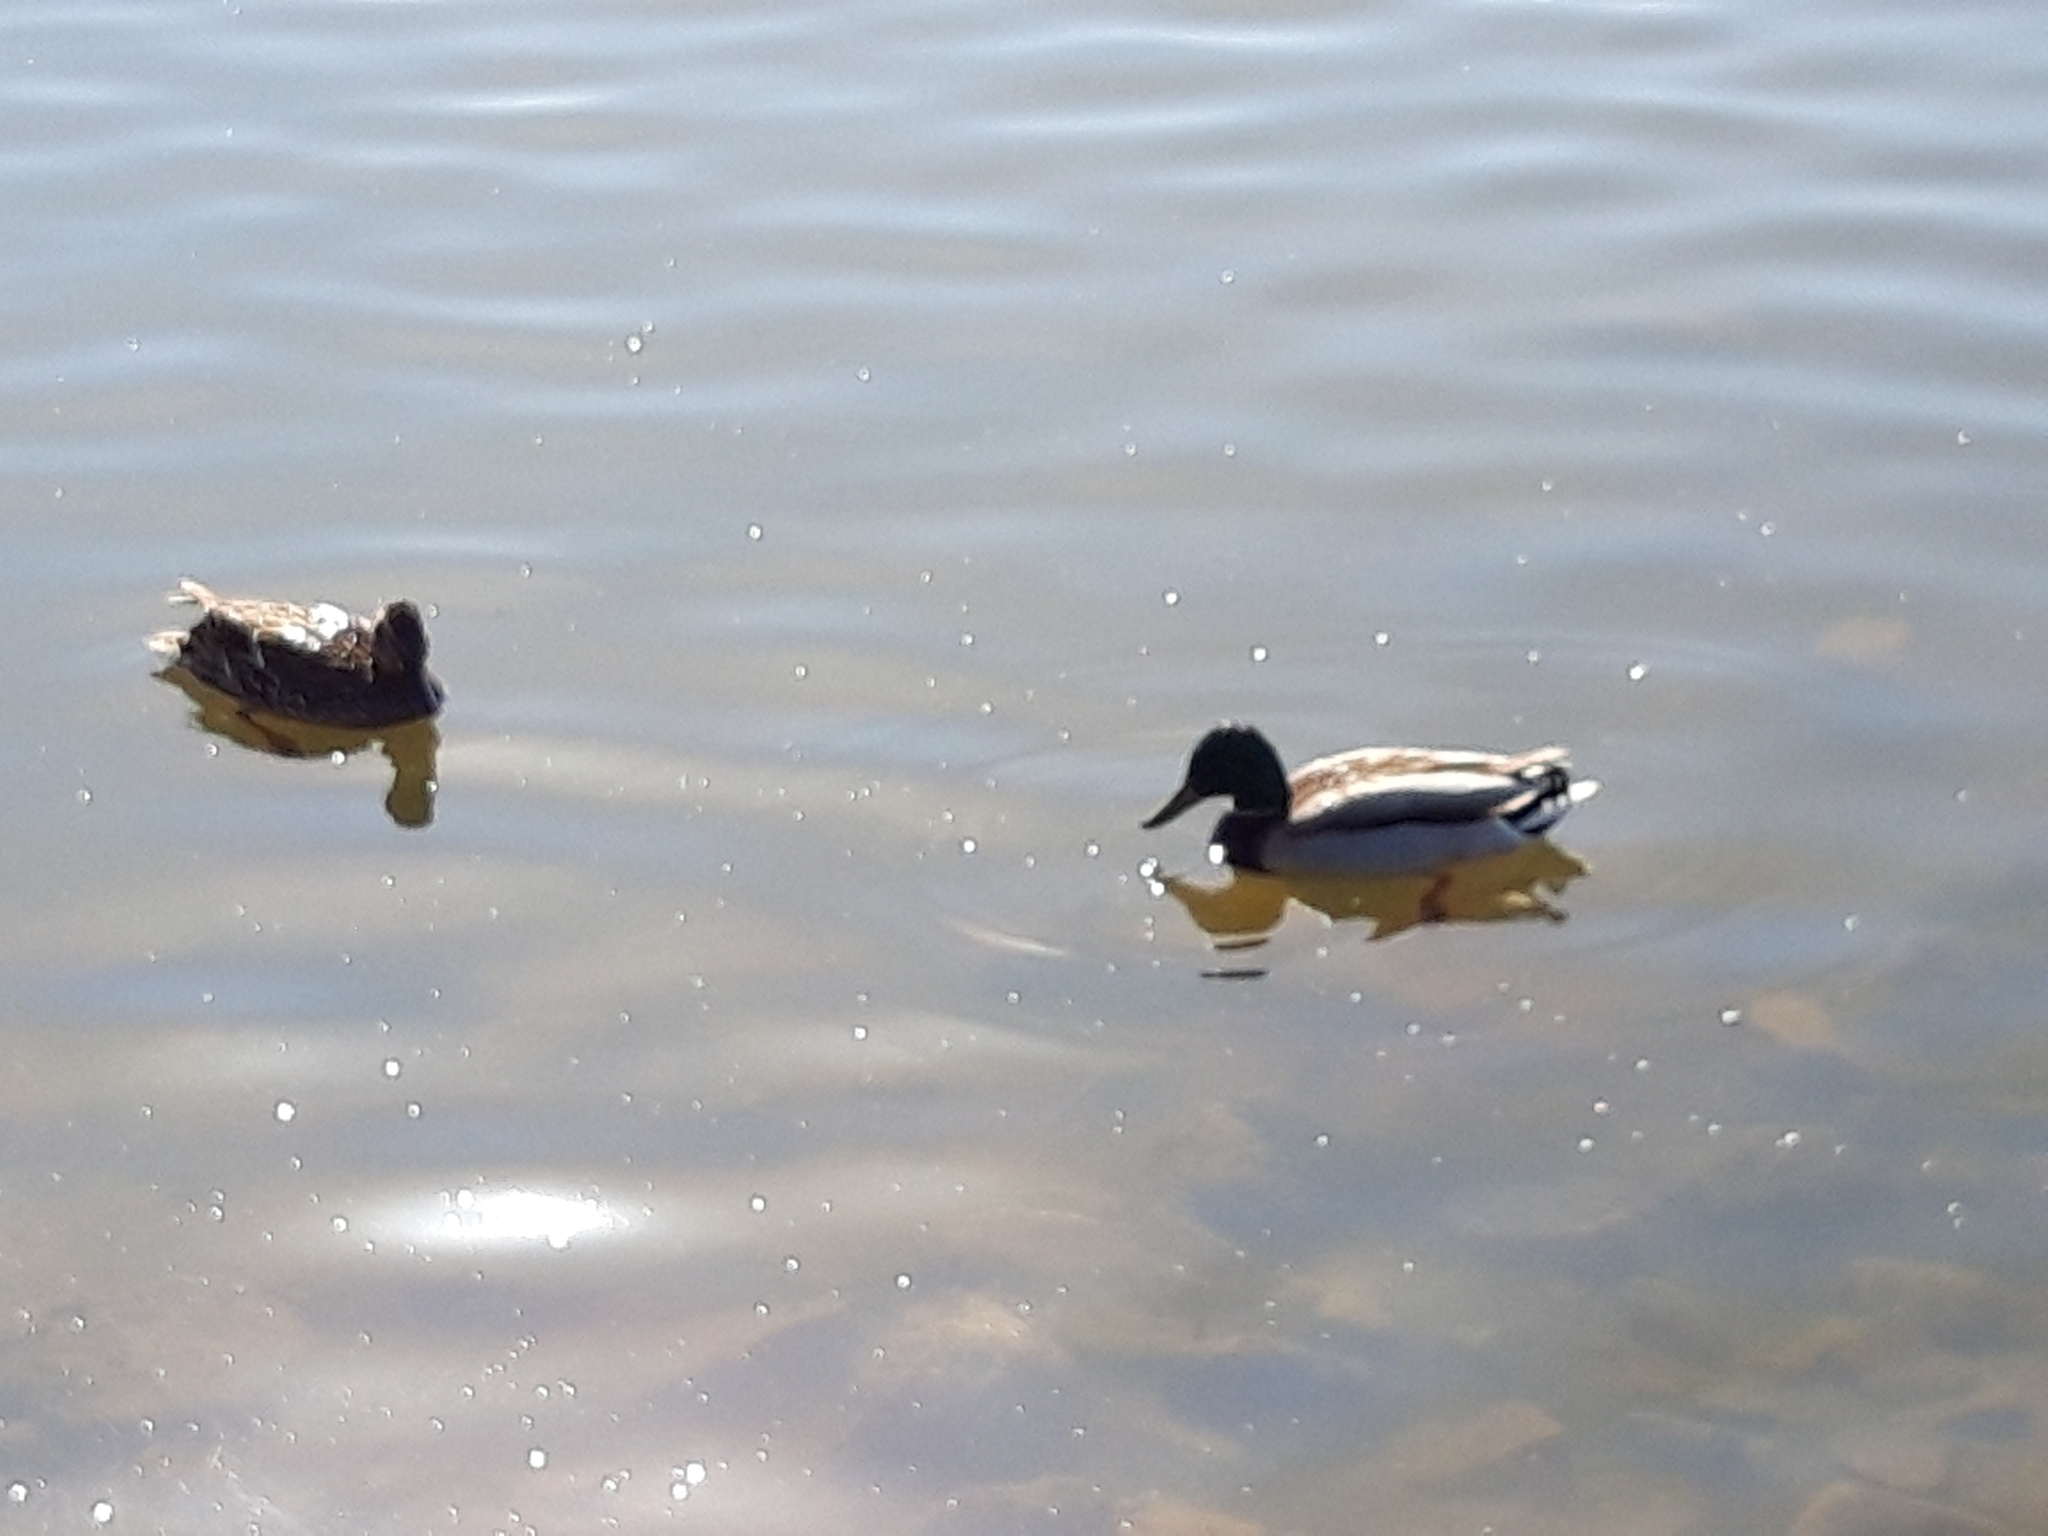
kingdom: Animalia
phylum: Chordata
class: Aves
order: Anseriformes
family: Anatidae
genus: Anas
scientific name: Anas platyrhynchos
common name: Mallard
